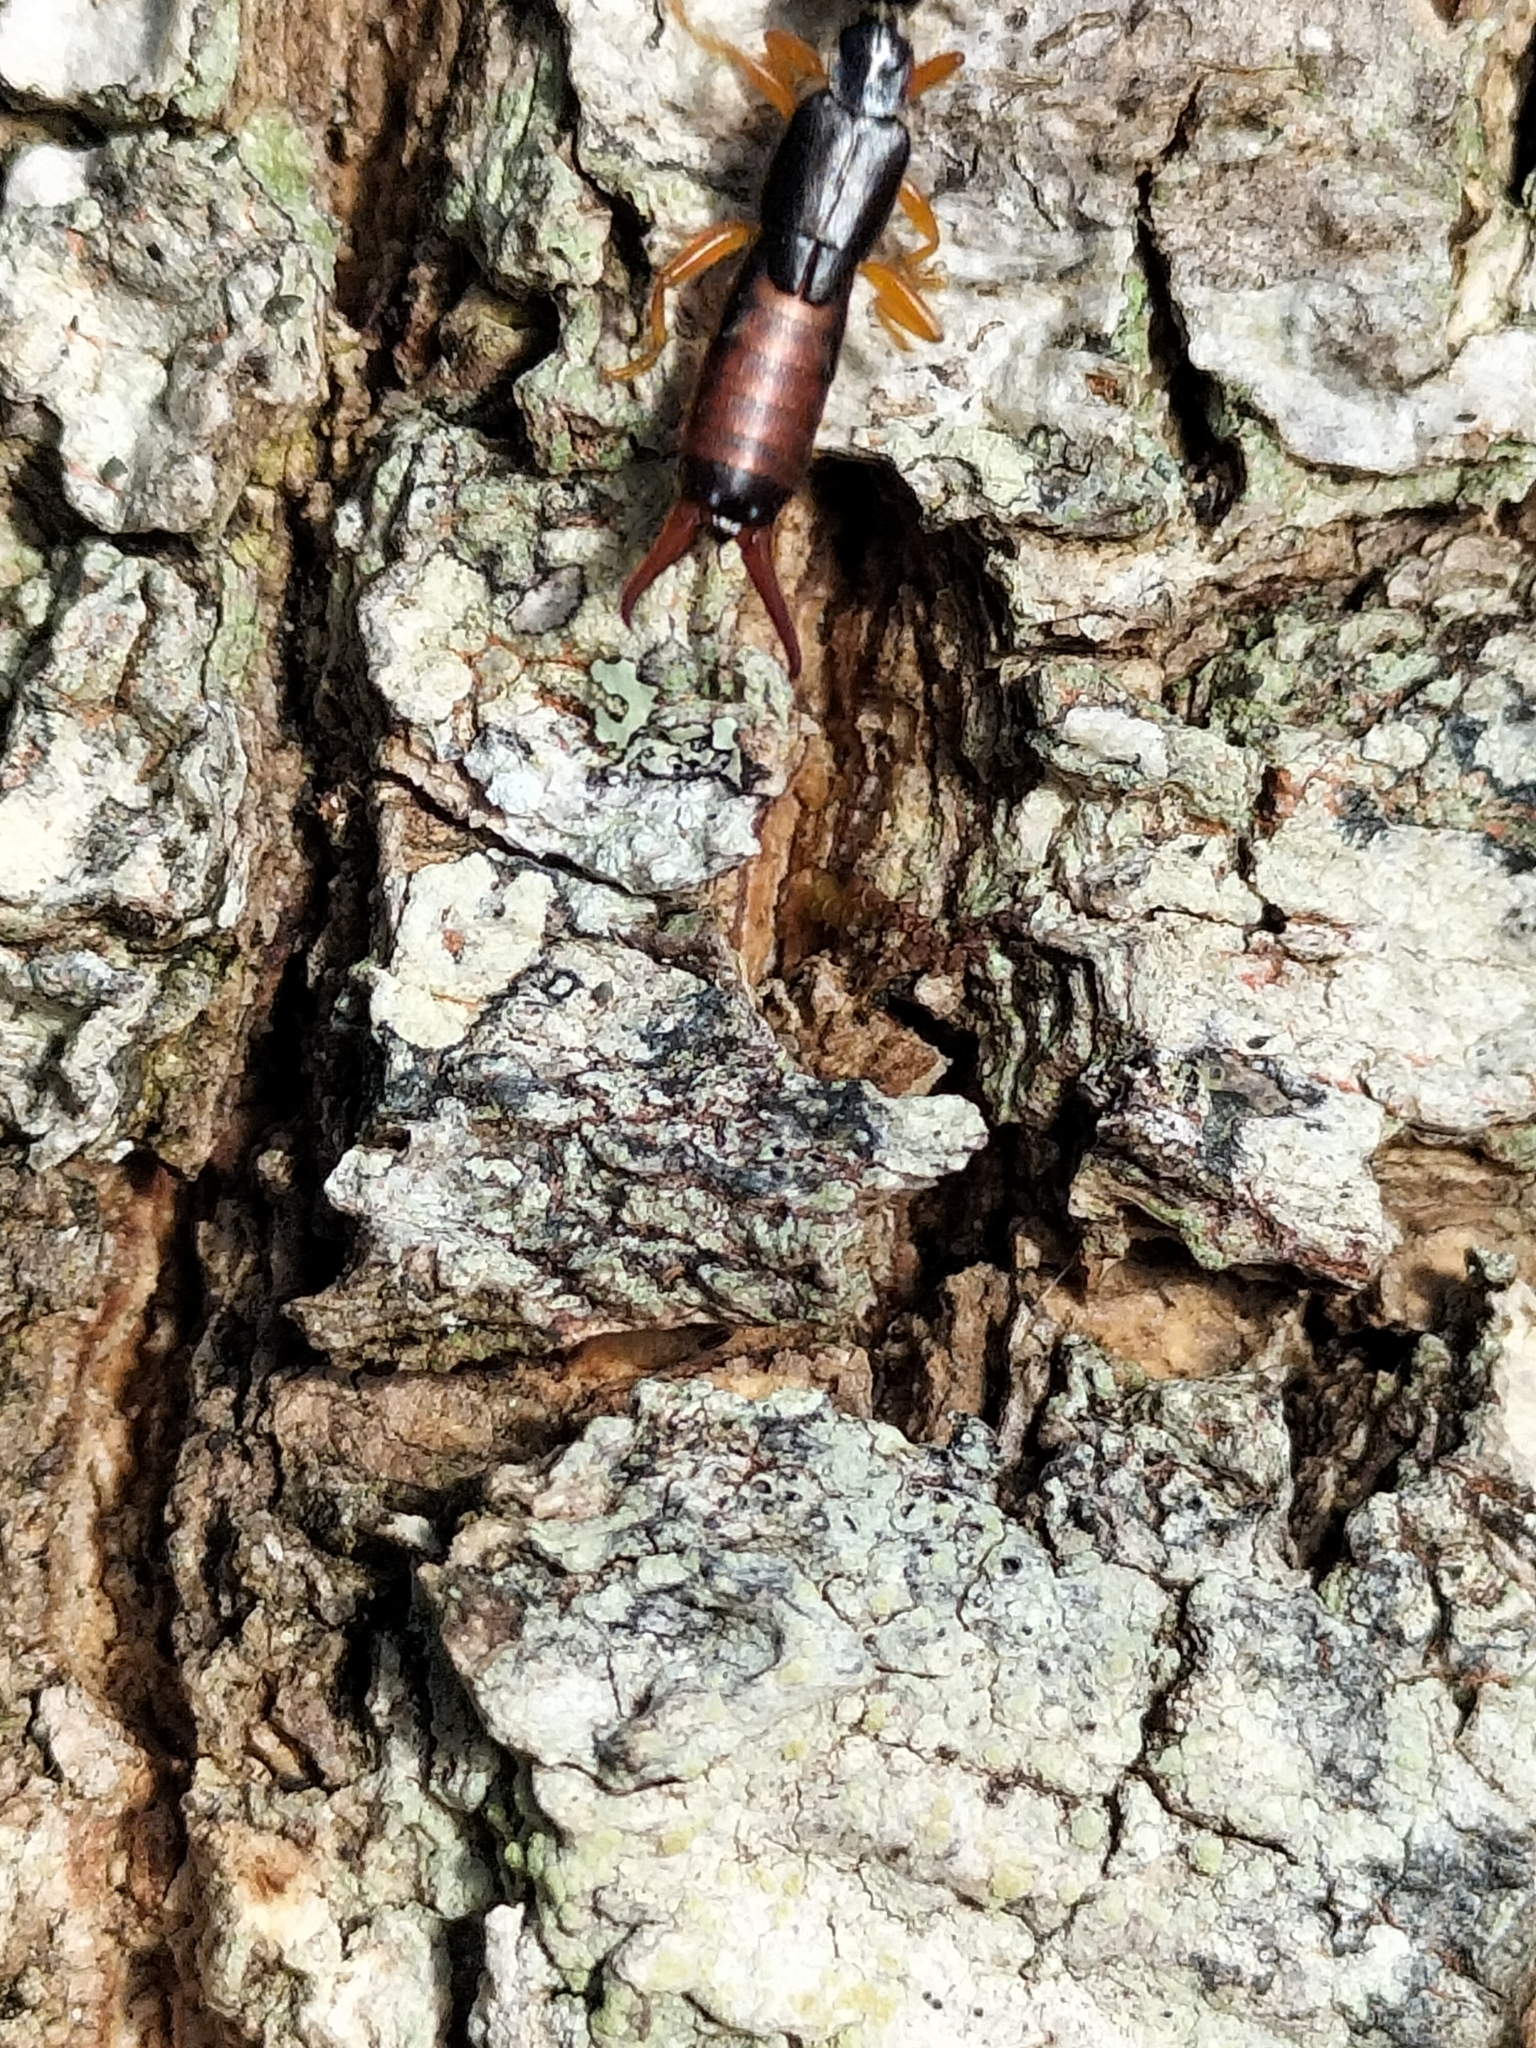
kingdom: Animalia
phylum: Arthropoda
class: Insecta
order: Dermaptera
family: Chelisochidae
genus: Hamaxas
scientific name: Hamaxas nigrorufus
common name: Earwig
